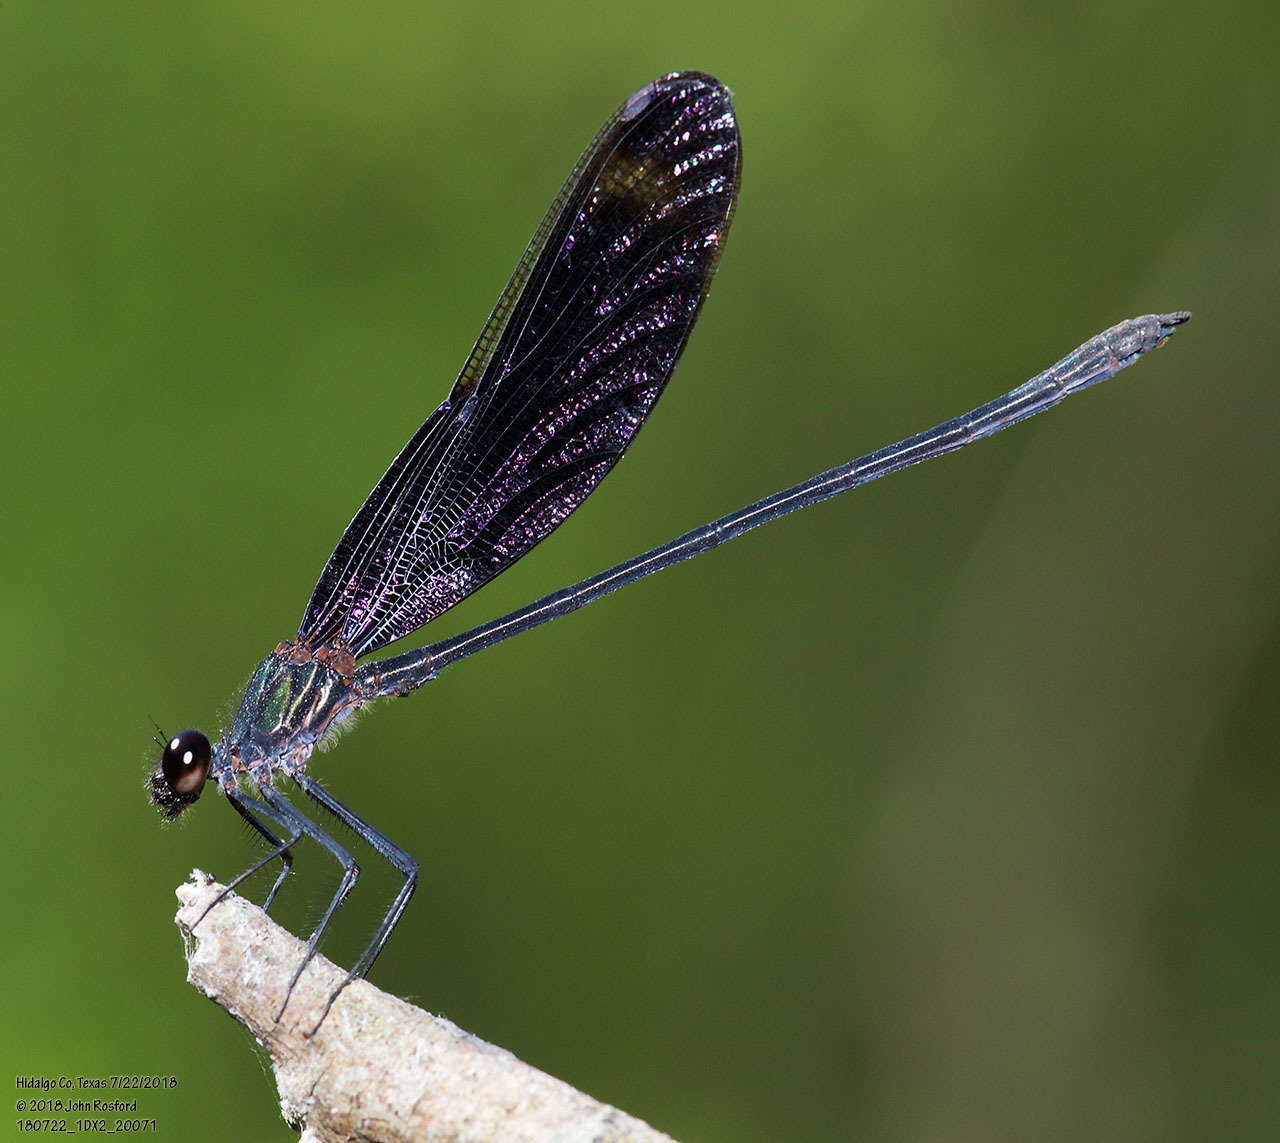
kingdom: Animalia
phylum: Arthropoda
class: Insecta
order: Odonata
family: Calopterygidae
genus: Hetaerina
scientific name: Hetaerina titia
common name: Smoky rubyspot
